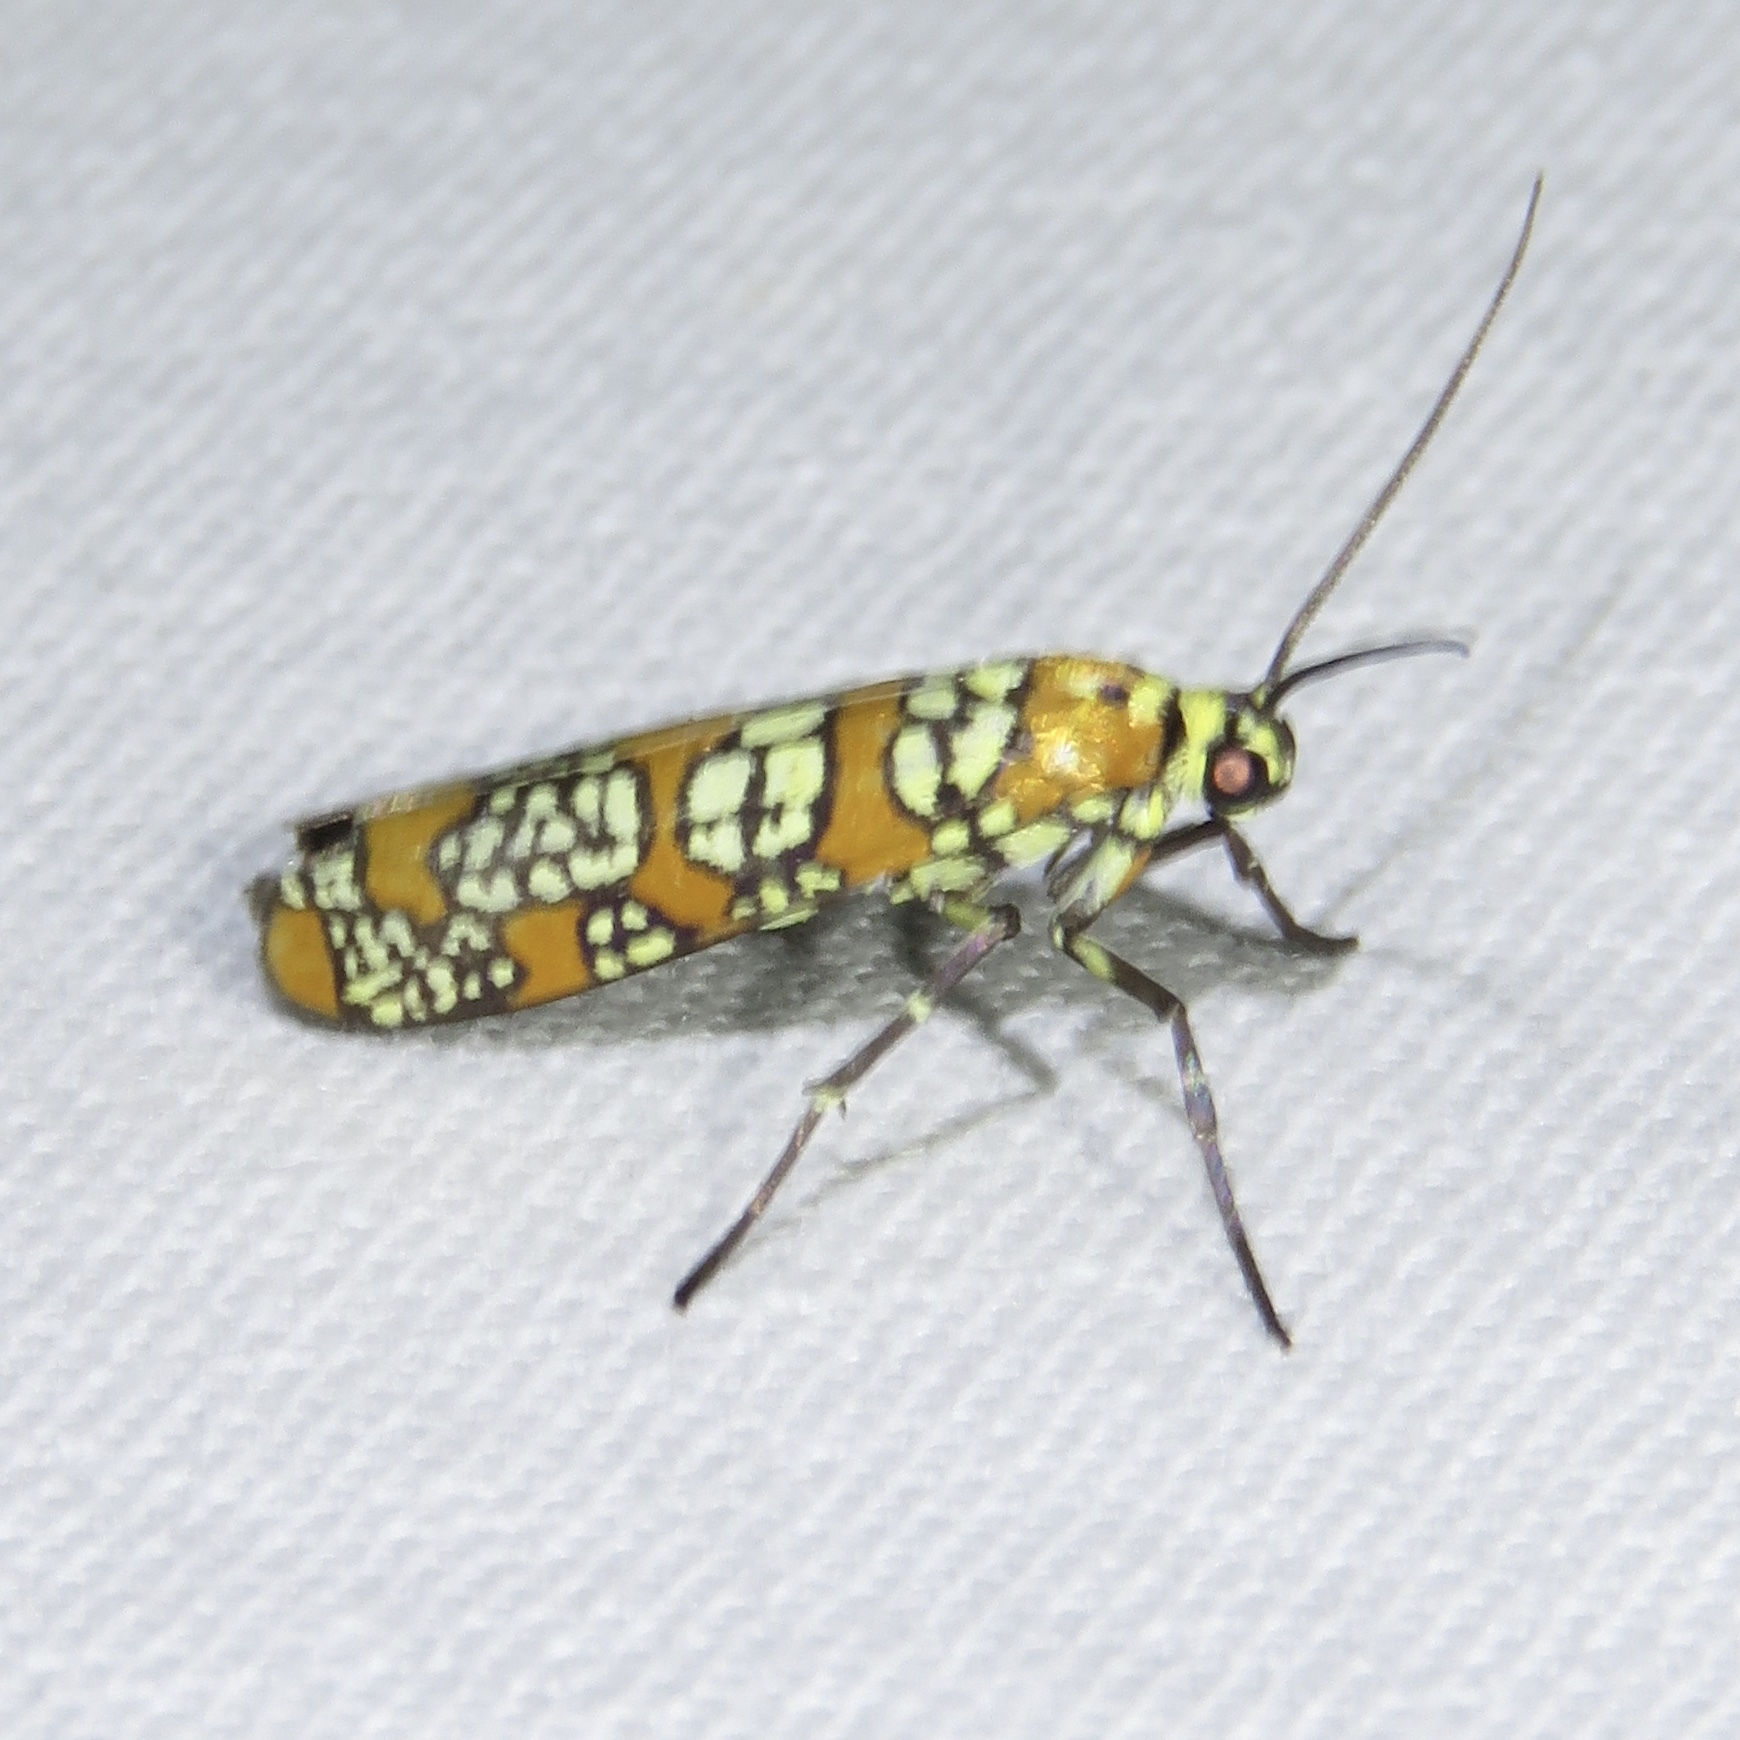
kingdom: Animalia
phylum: Arthropoda
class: Insecta
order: Lepidoptera
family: Attevidae
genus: Atteva
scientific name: Atteva punctella
